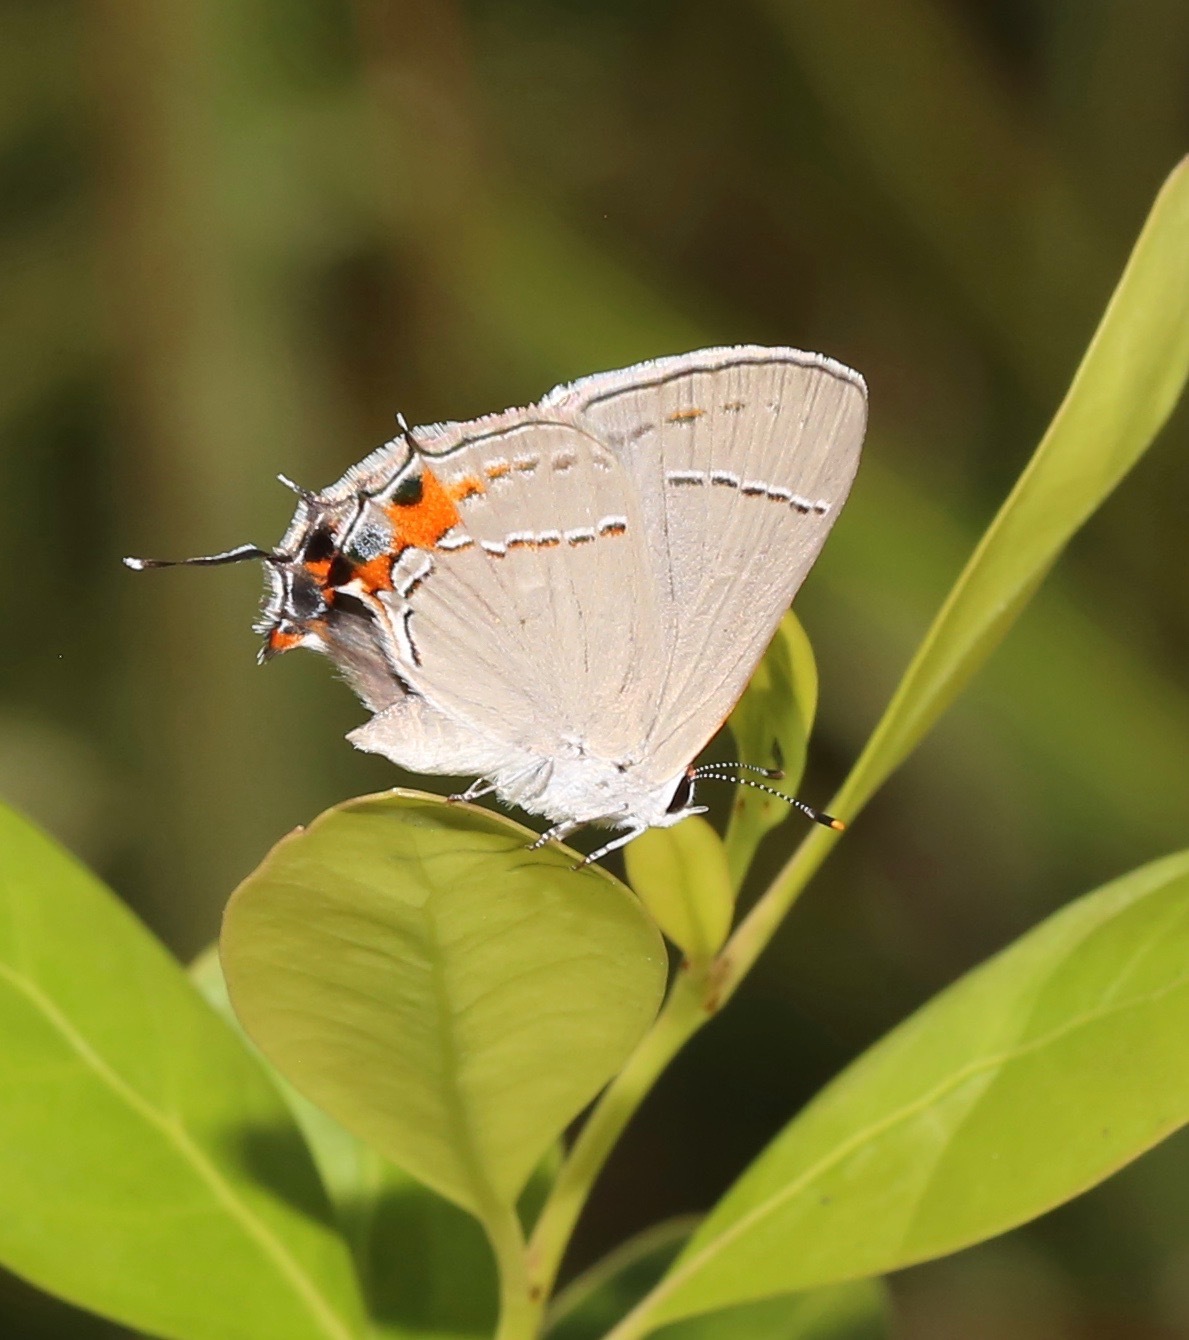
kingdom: Animalia
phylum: Arthropoda
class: Insecta
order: Lepidoptera
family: Lycaenidae
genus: Strymon
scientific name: Strymon melinus
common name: Gray hairstreak
